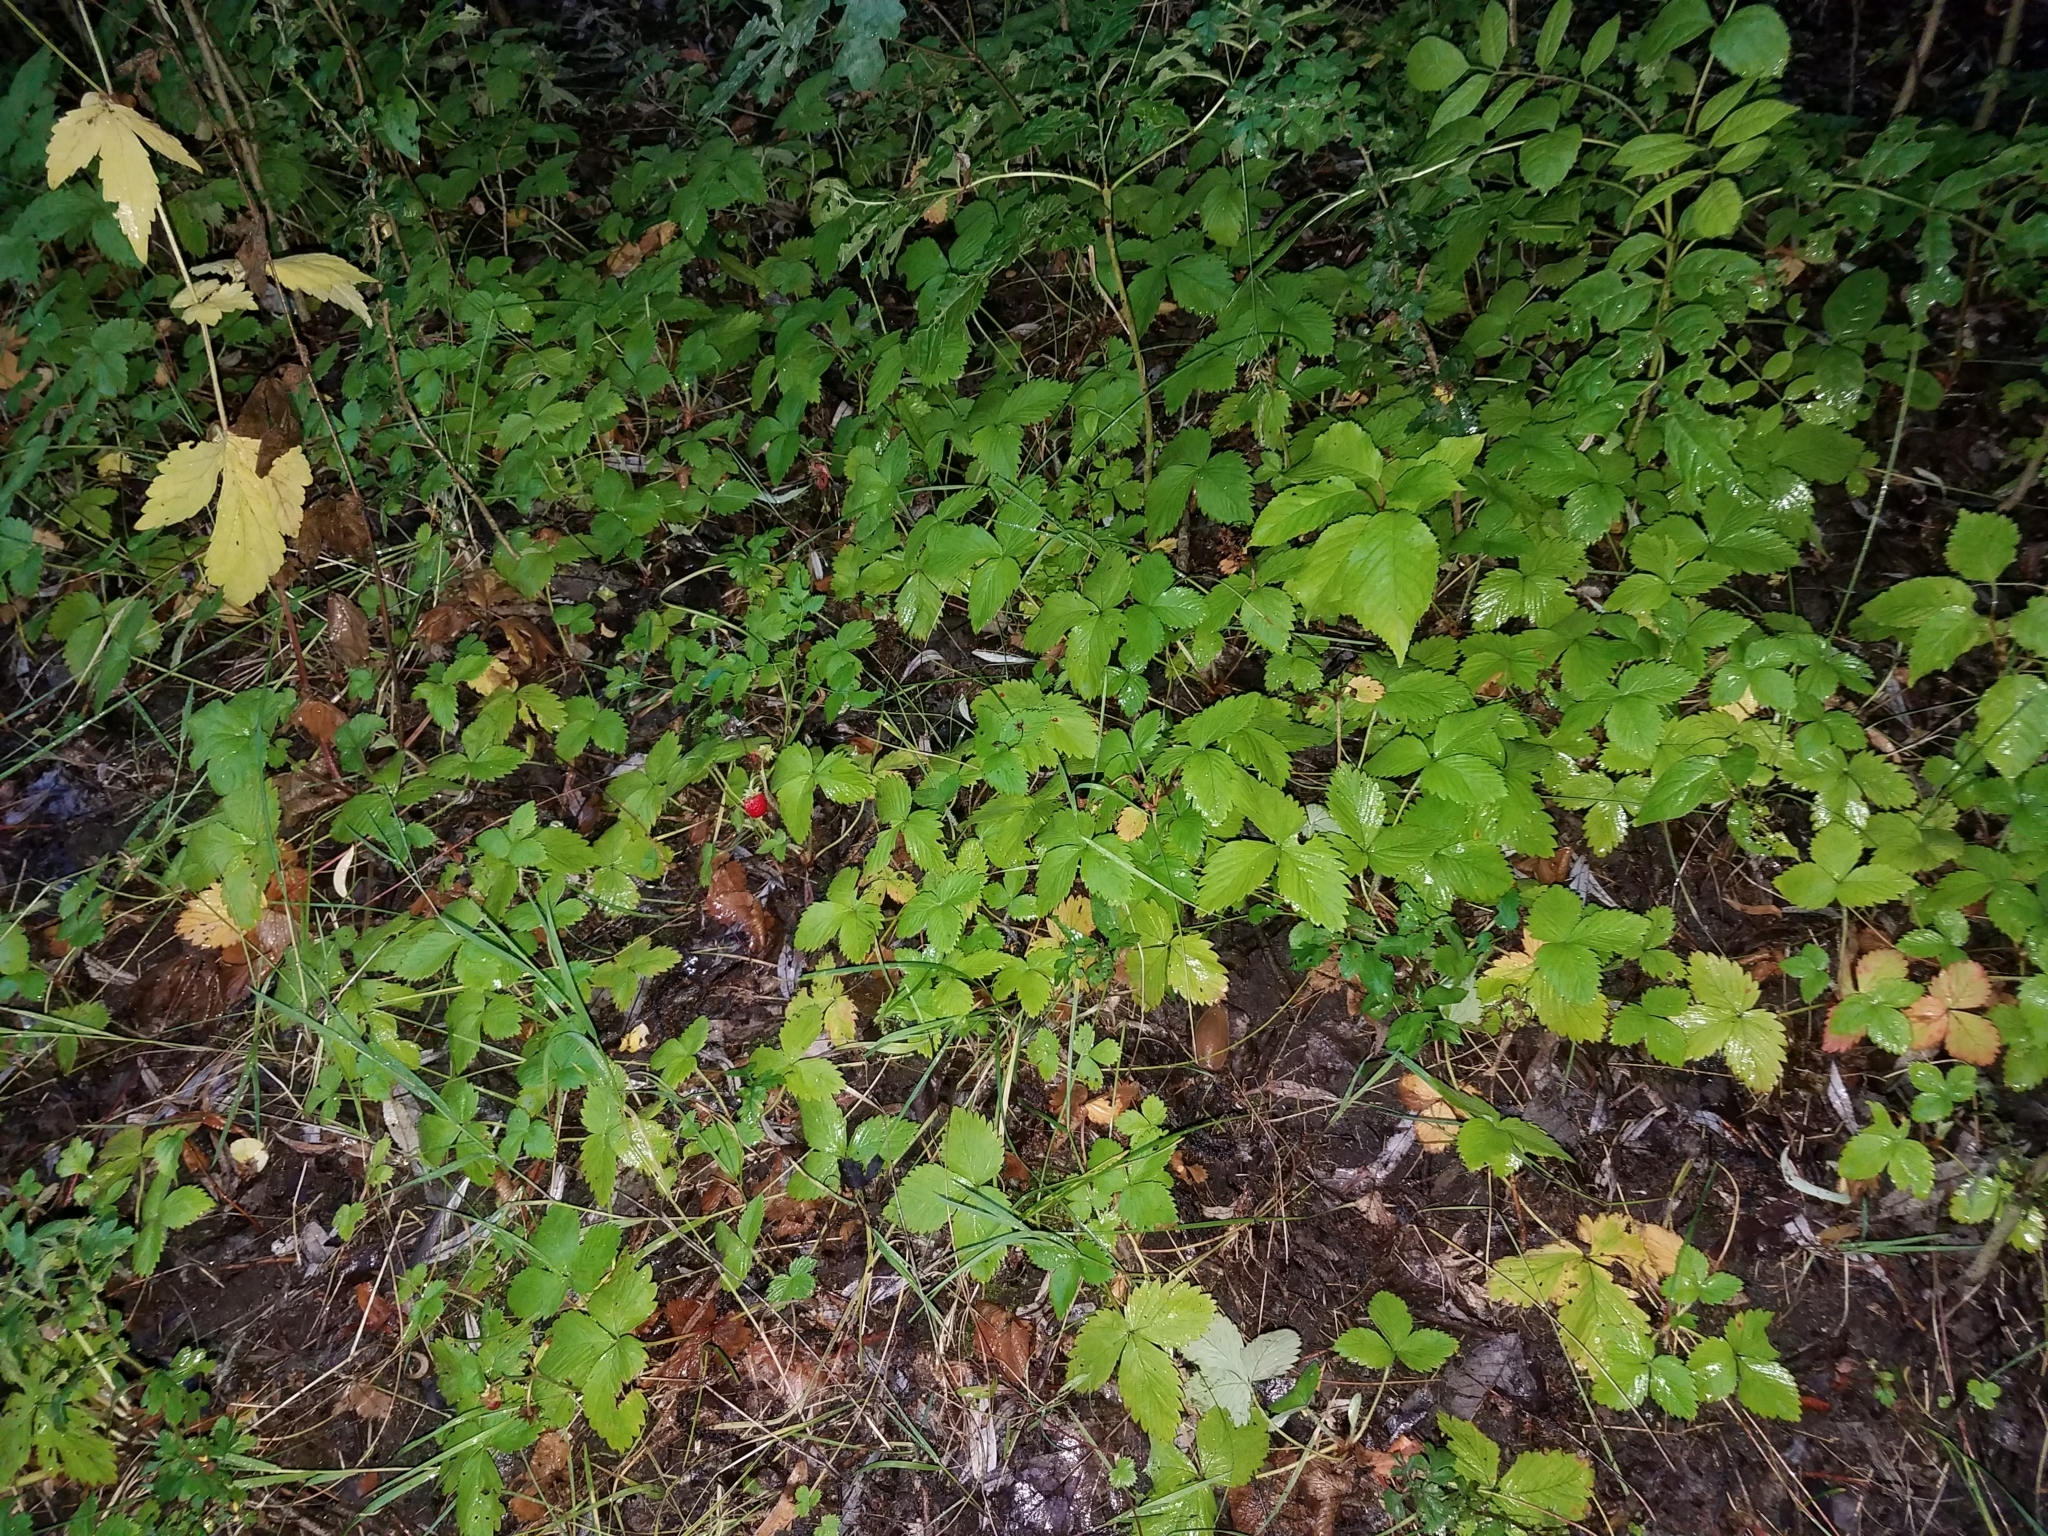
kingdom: Plantae
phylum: Tracheophyta
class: Magnoliopsida
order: Rosales
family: Rosaceae
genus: Fragaria
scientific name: Fragaria vesca
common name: Wild strawberry
